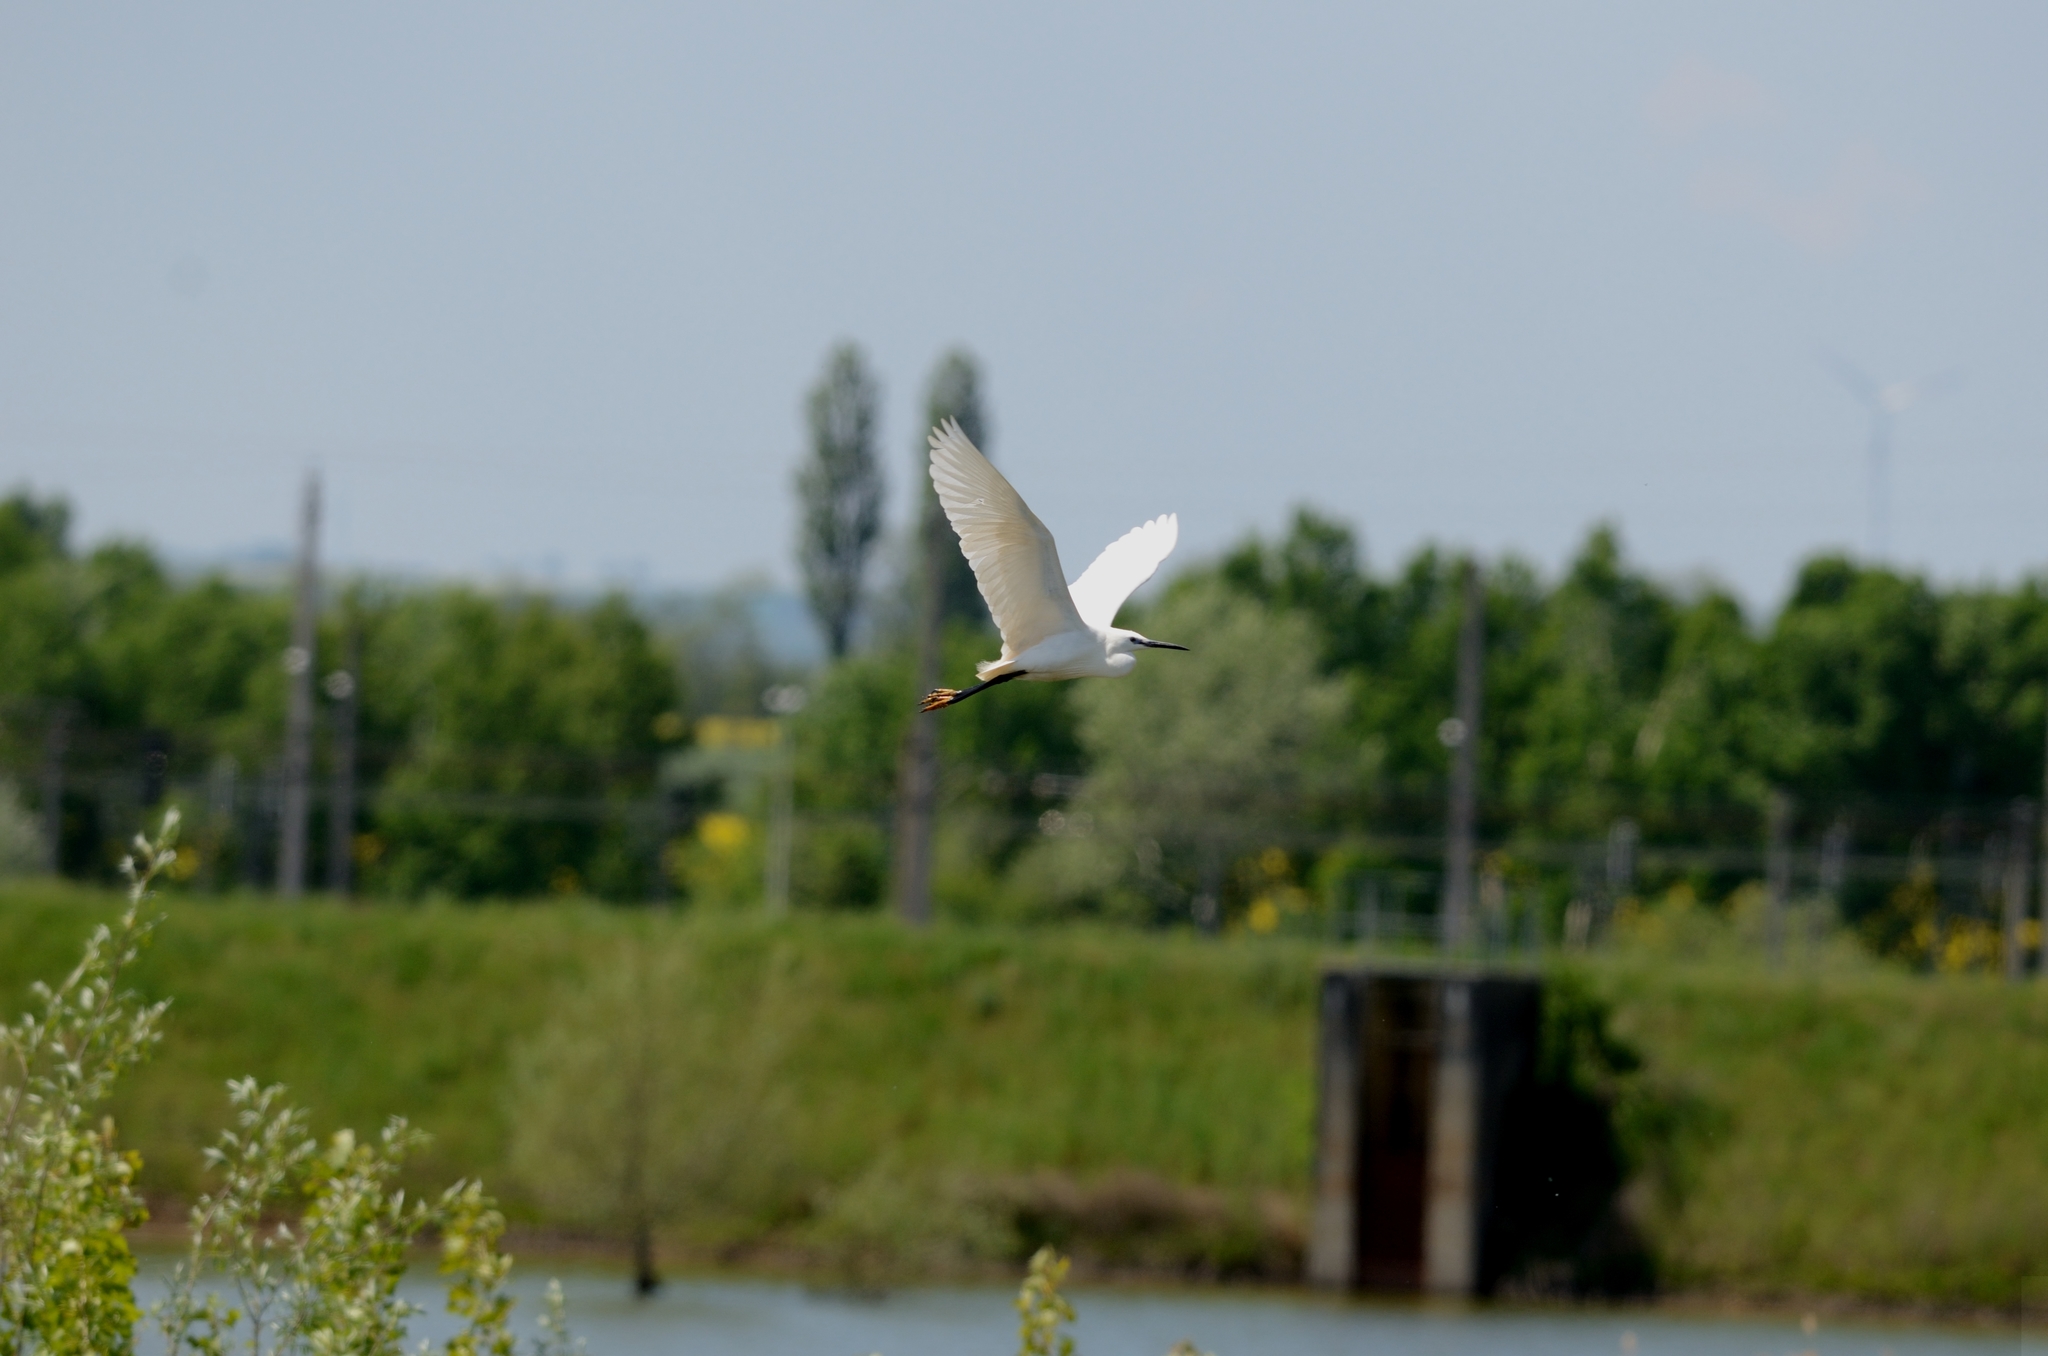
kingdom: Animalia
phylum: Chordata
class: Aves
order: Pelecaniformes
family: Ardeidae
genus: Egretta
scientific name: Egretta garzetta
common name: Little egret
